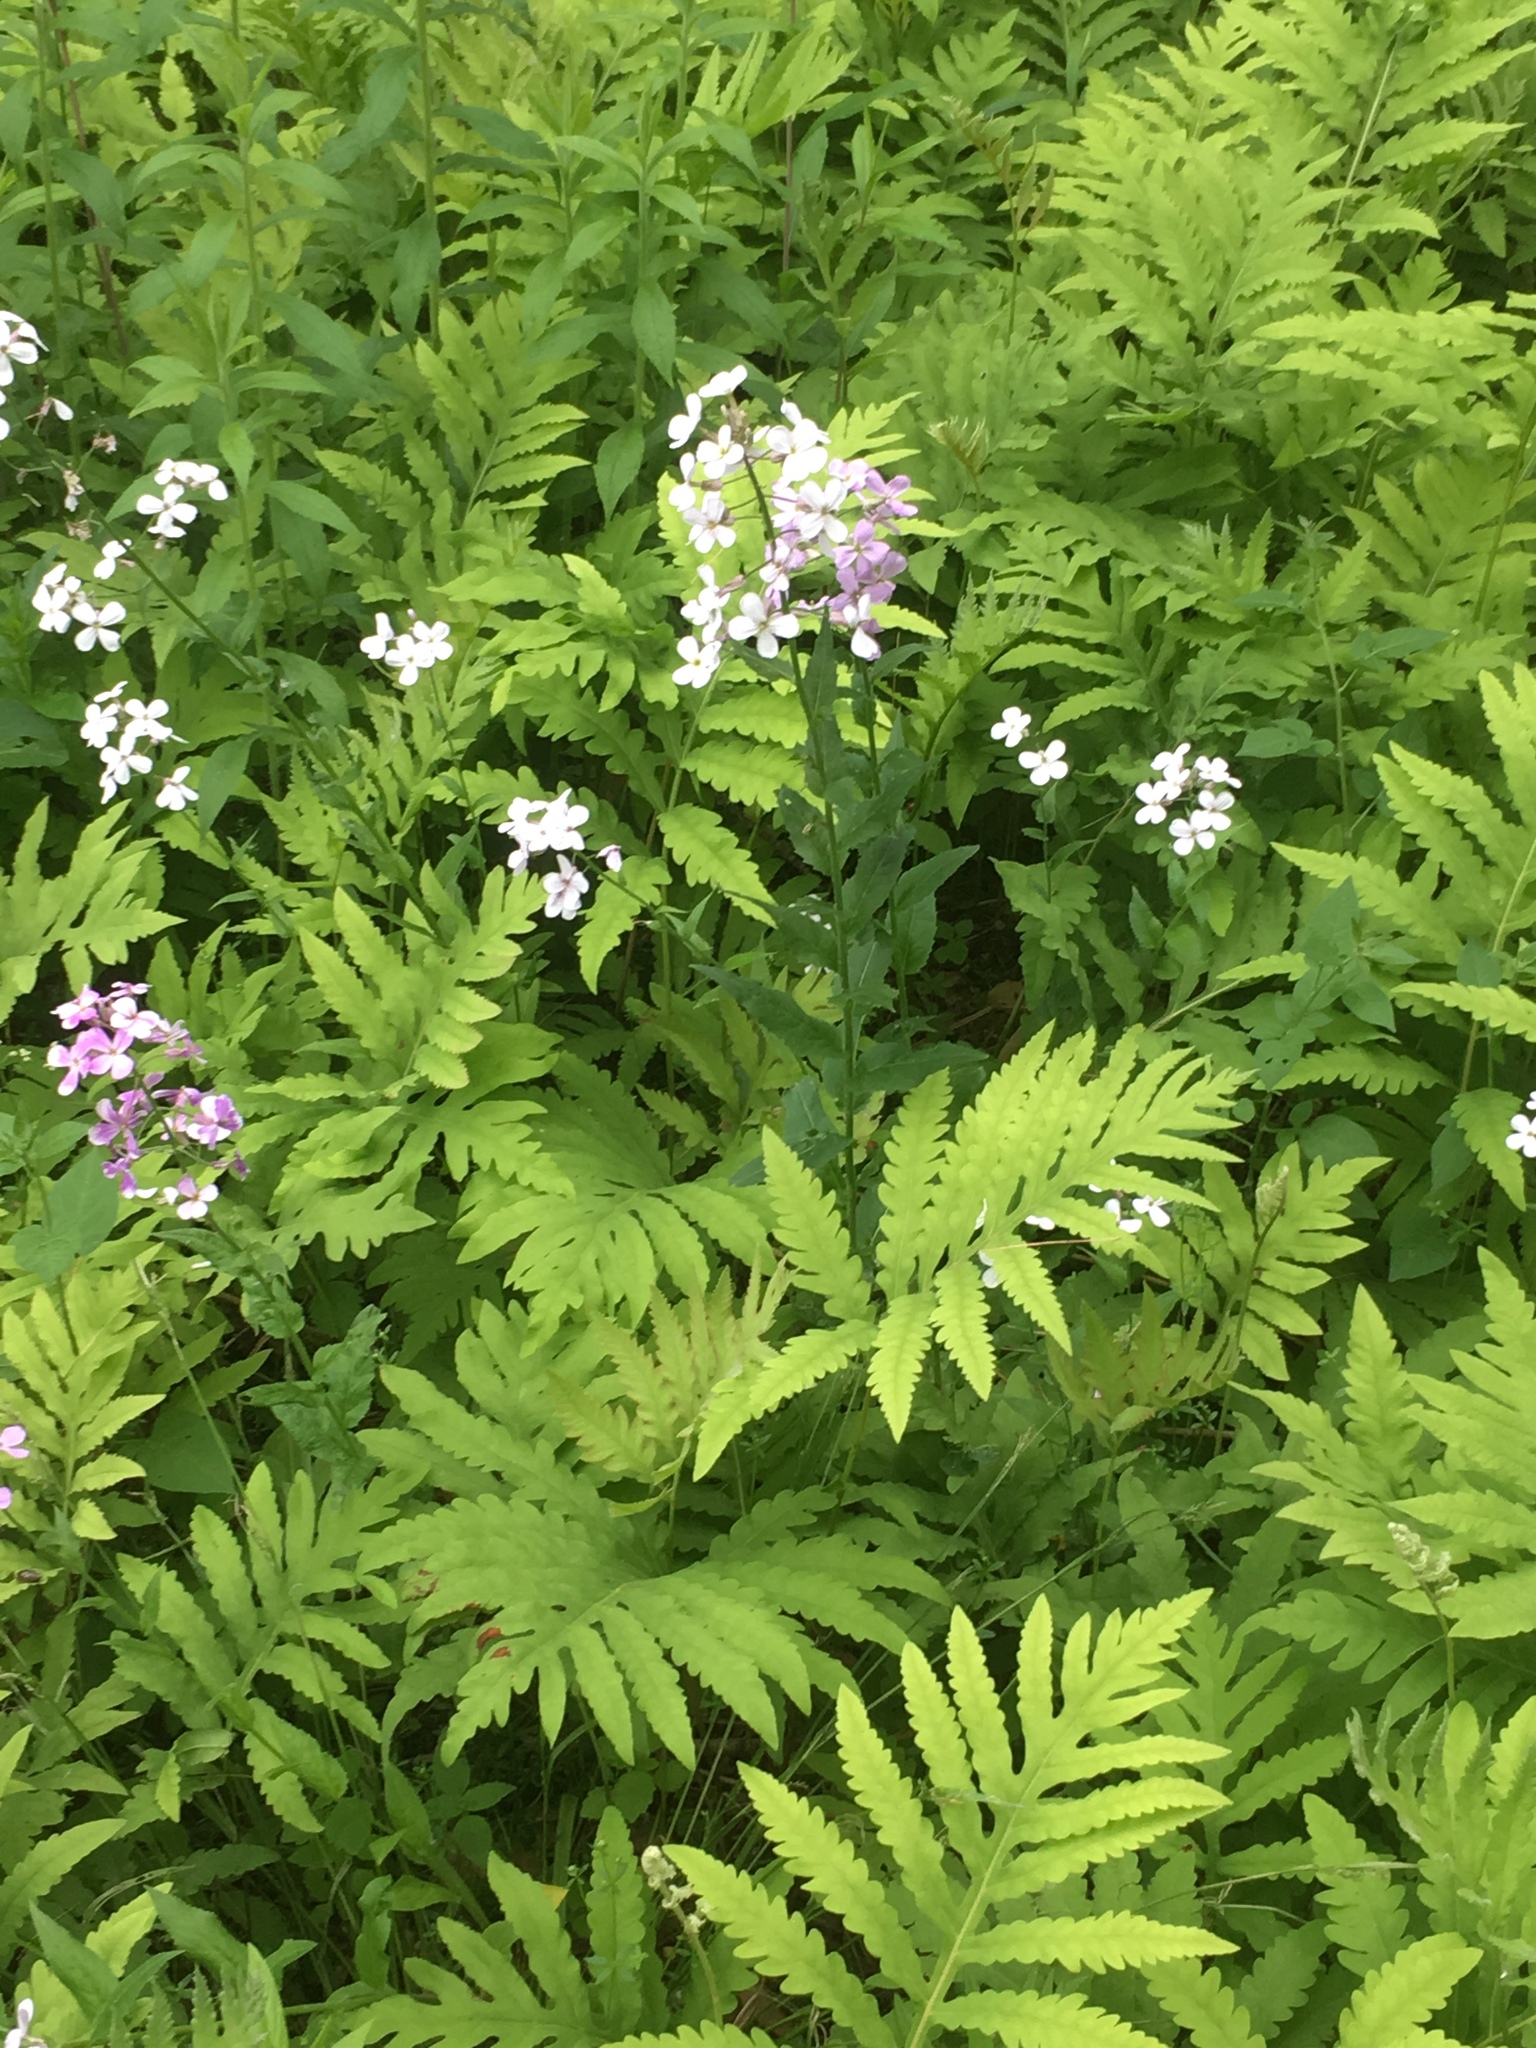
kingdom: Plantae
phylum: Tracheophyta
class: Magnoliopsida
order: Brassicales
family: Brassicaceae
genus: Hesperis
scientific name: Hesperis matronalis
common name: Dame's-violet
